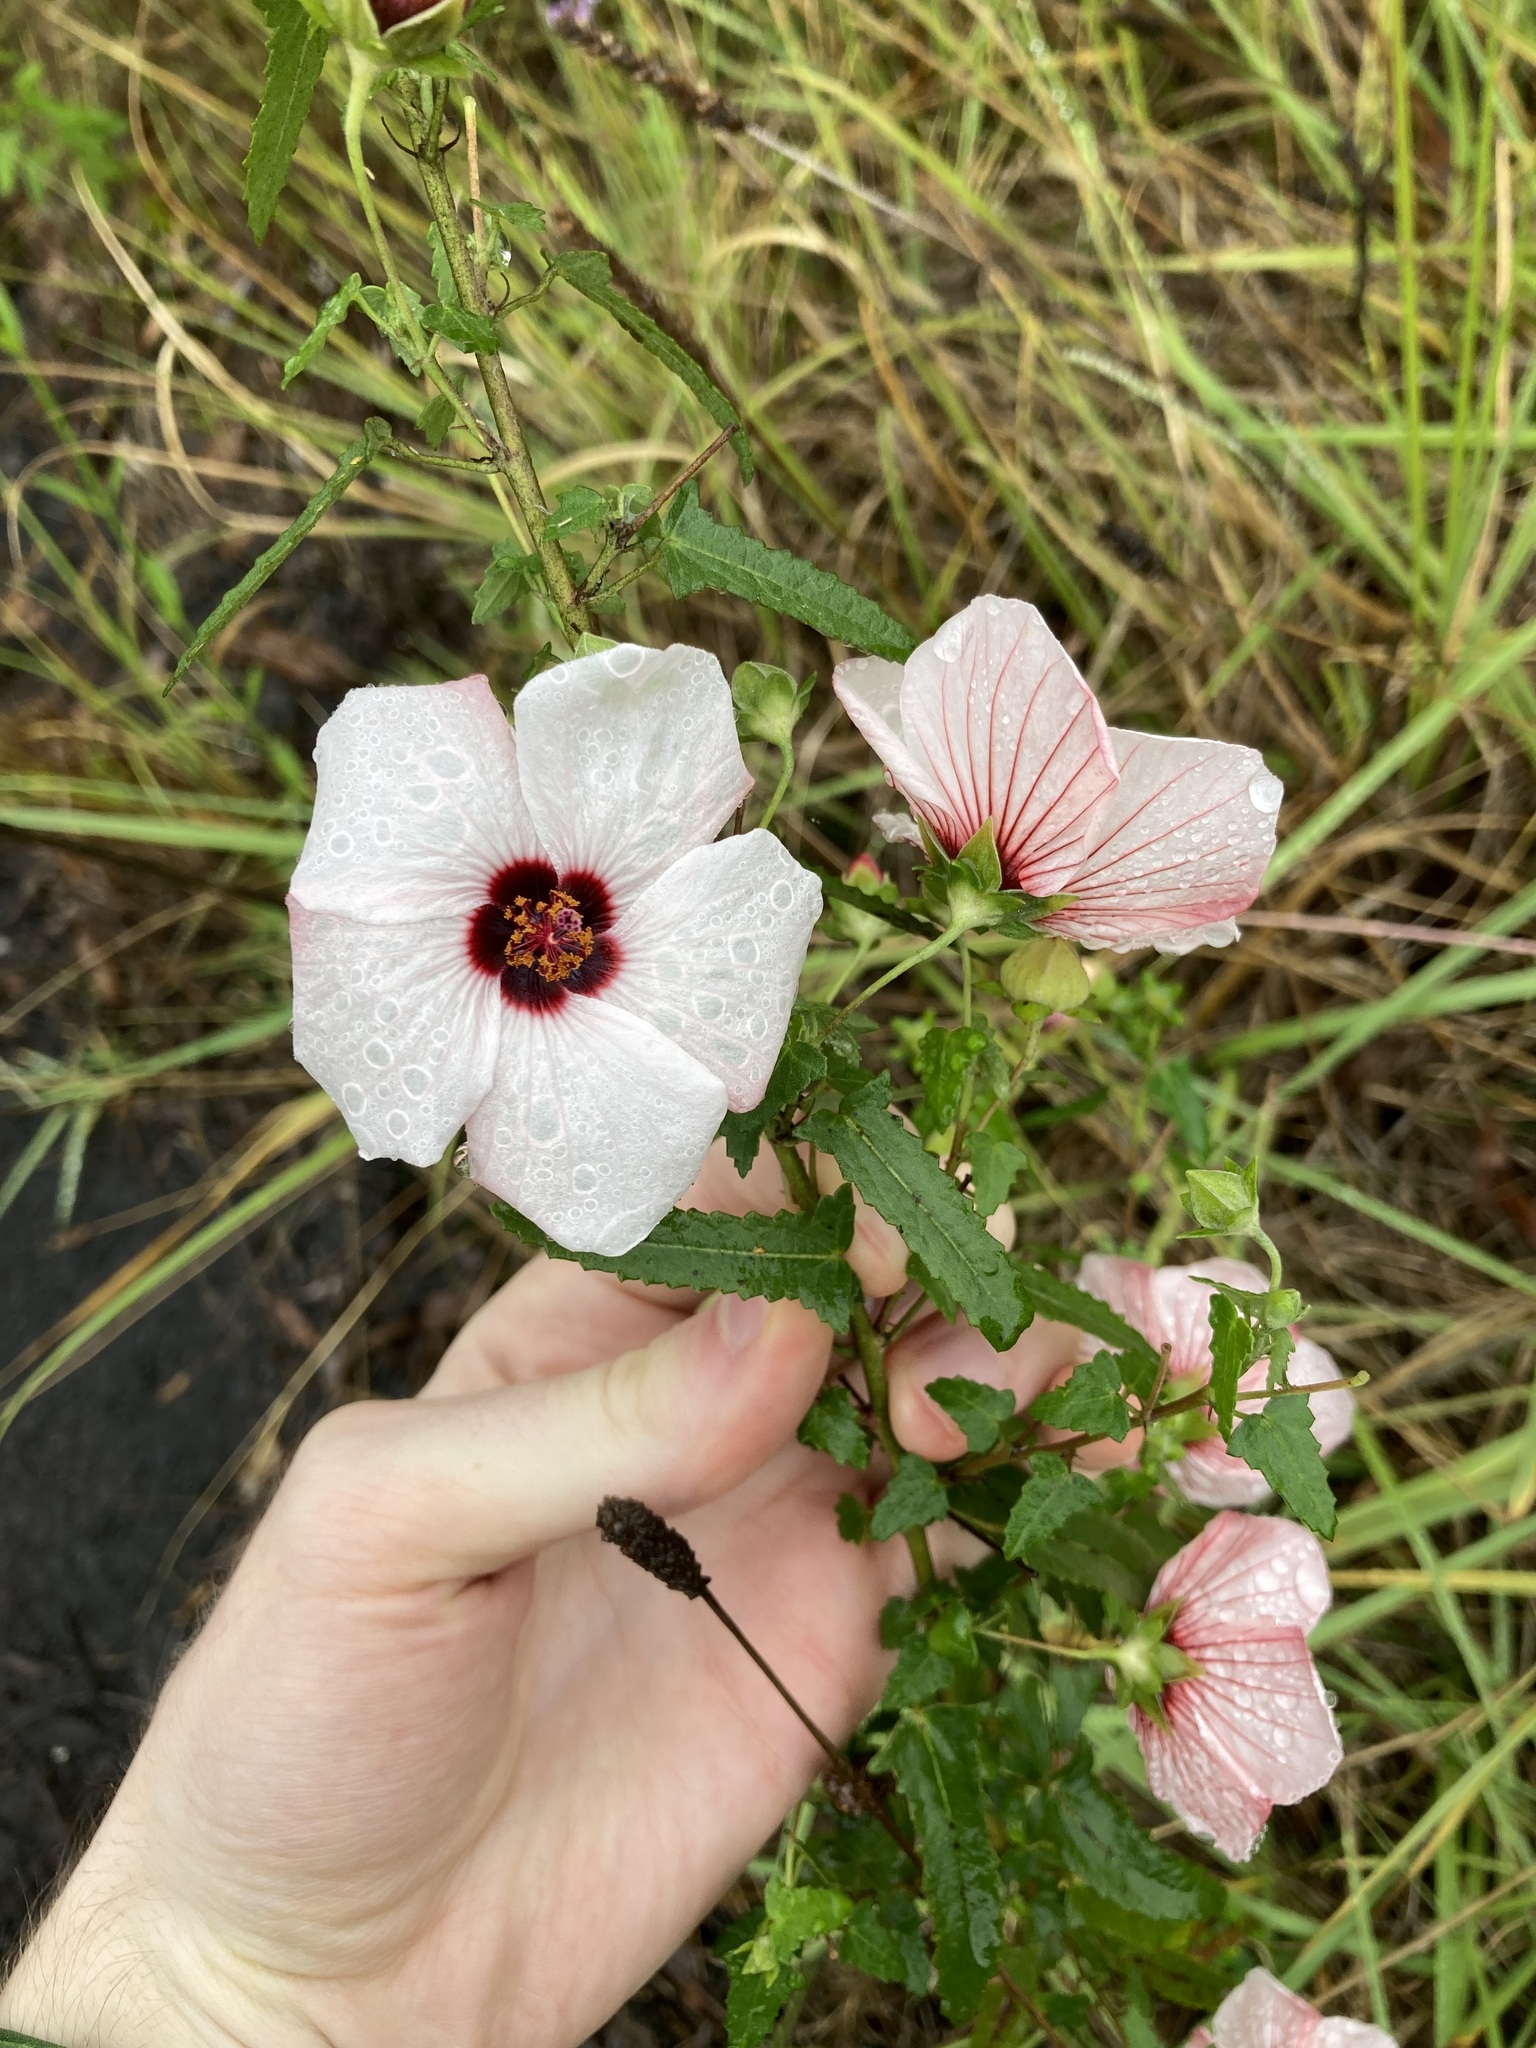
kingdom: Plantae
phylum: Tracheophyta
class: Magnoliopsida
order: Malvales
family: Malvaceae
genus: Pavonia
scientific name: Pavonia hastata
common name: Spearleaf swampmallow
